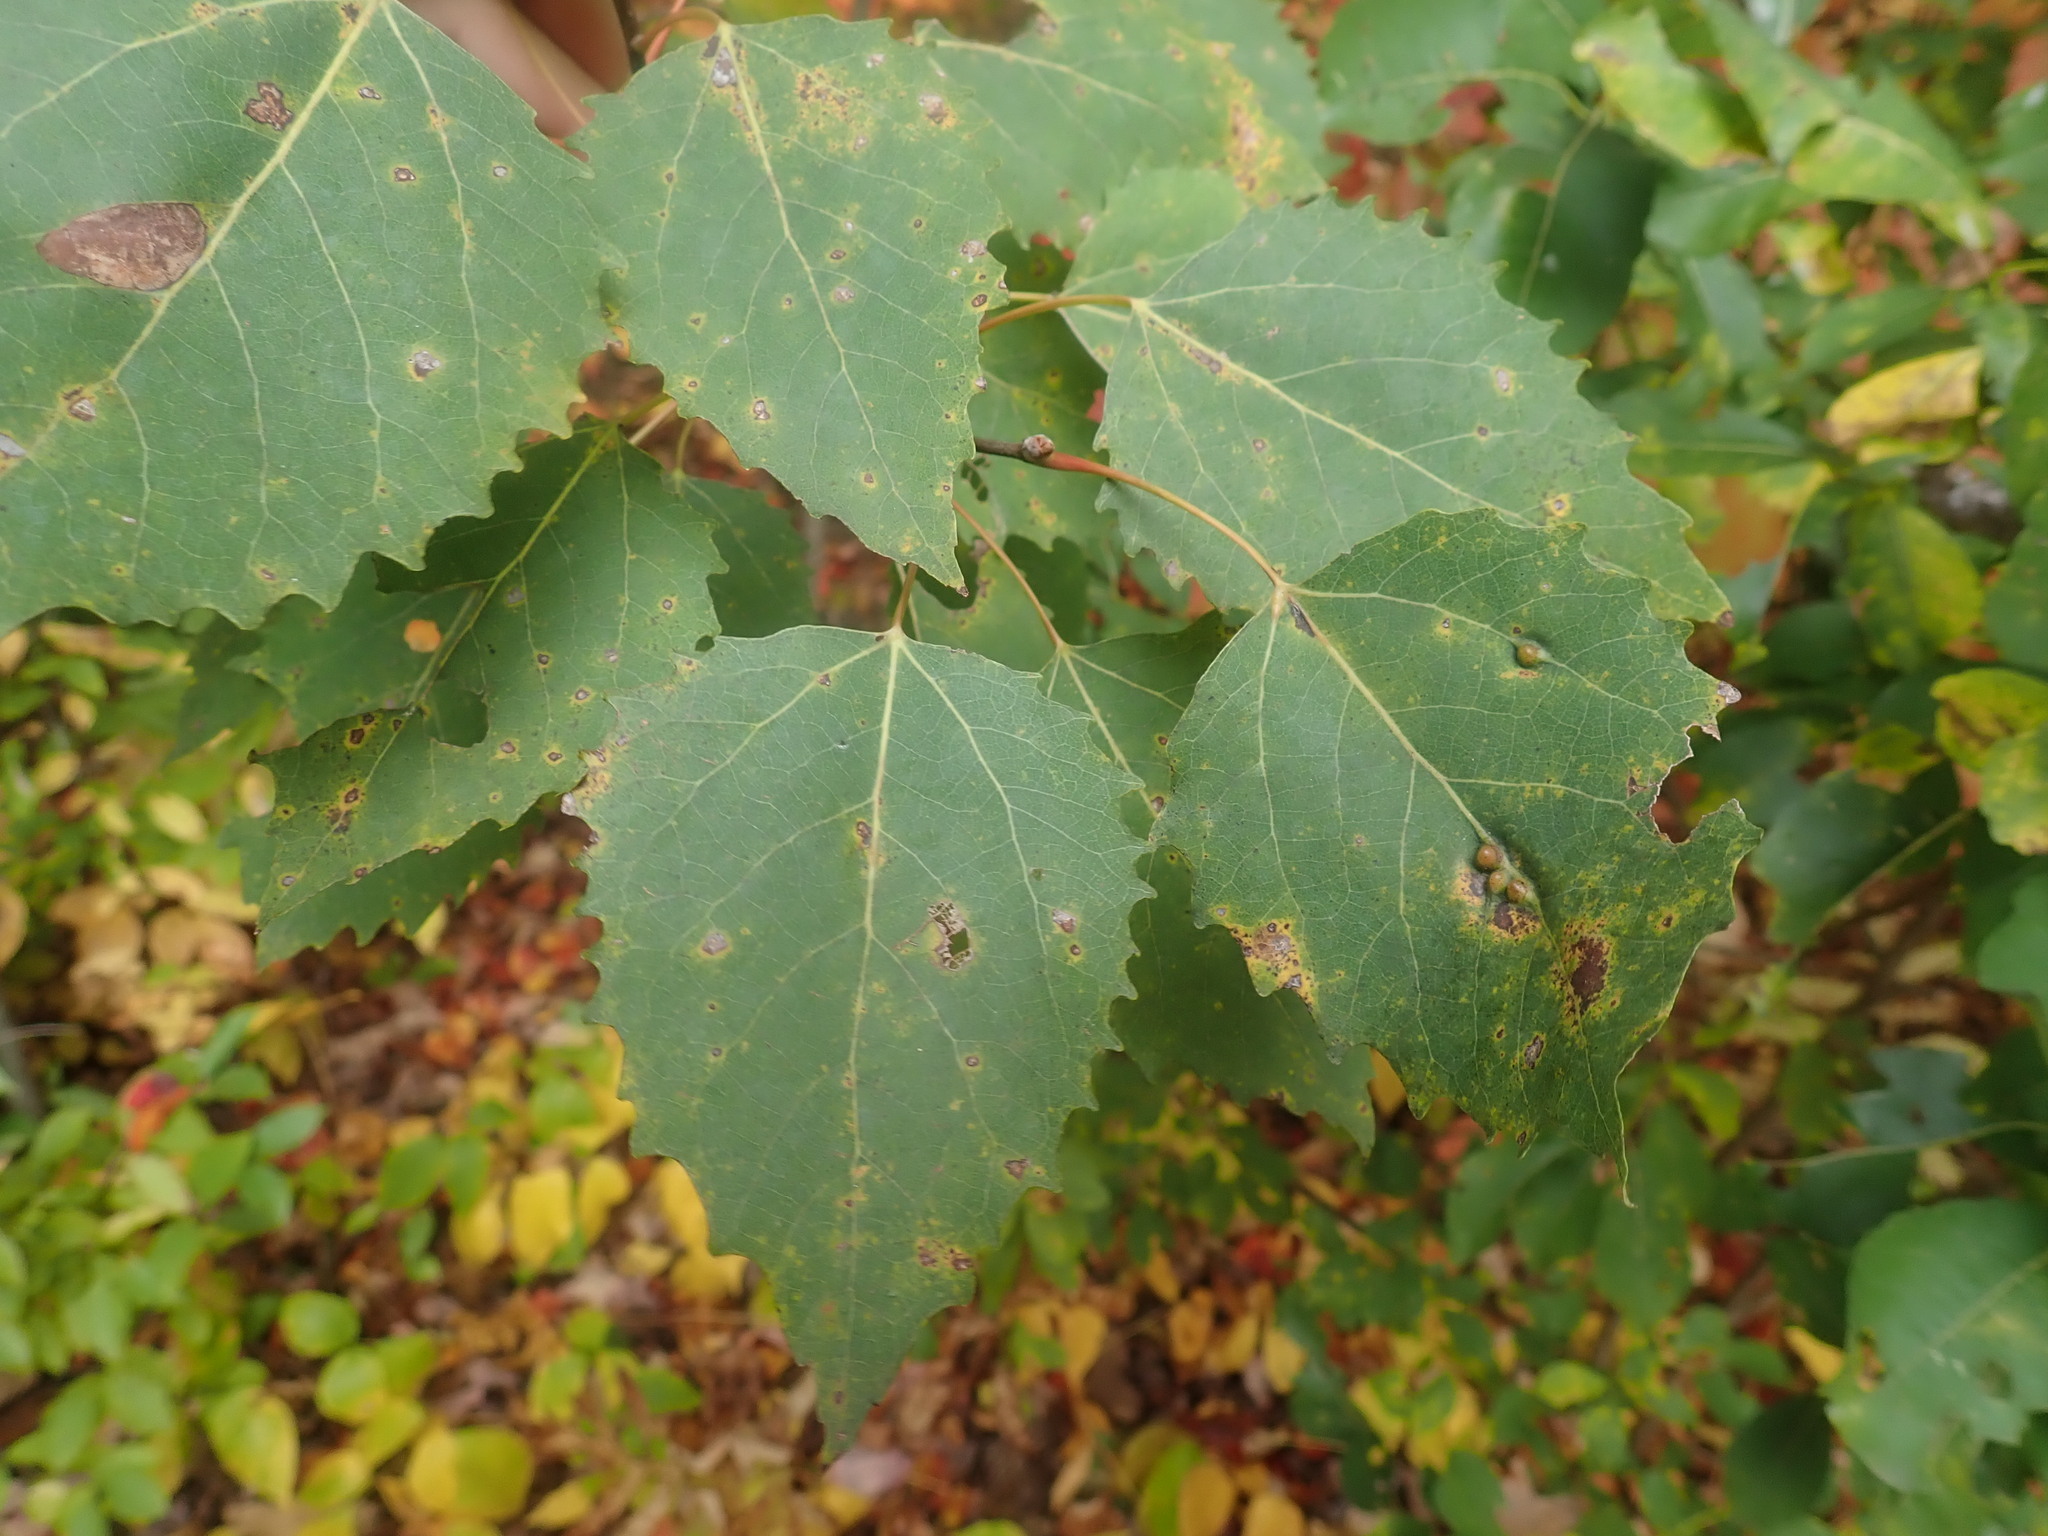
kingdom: Plantae
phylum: Tracheophyta
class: Magnoliopsida
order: Malpighiales
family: Salicaceae
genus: Populus
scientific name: Populus grandidentata
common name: Bigtooth aspen
